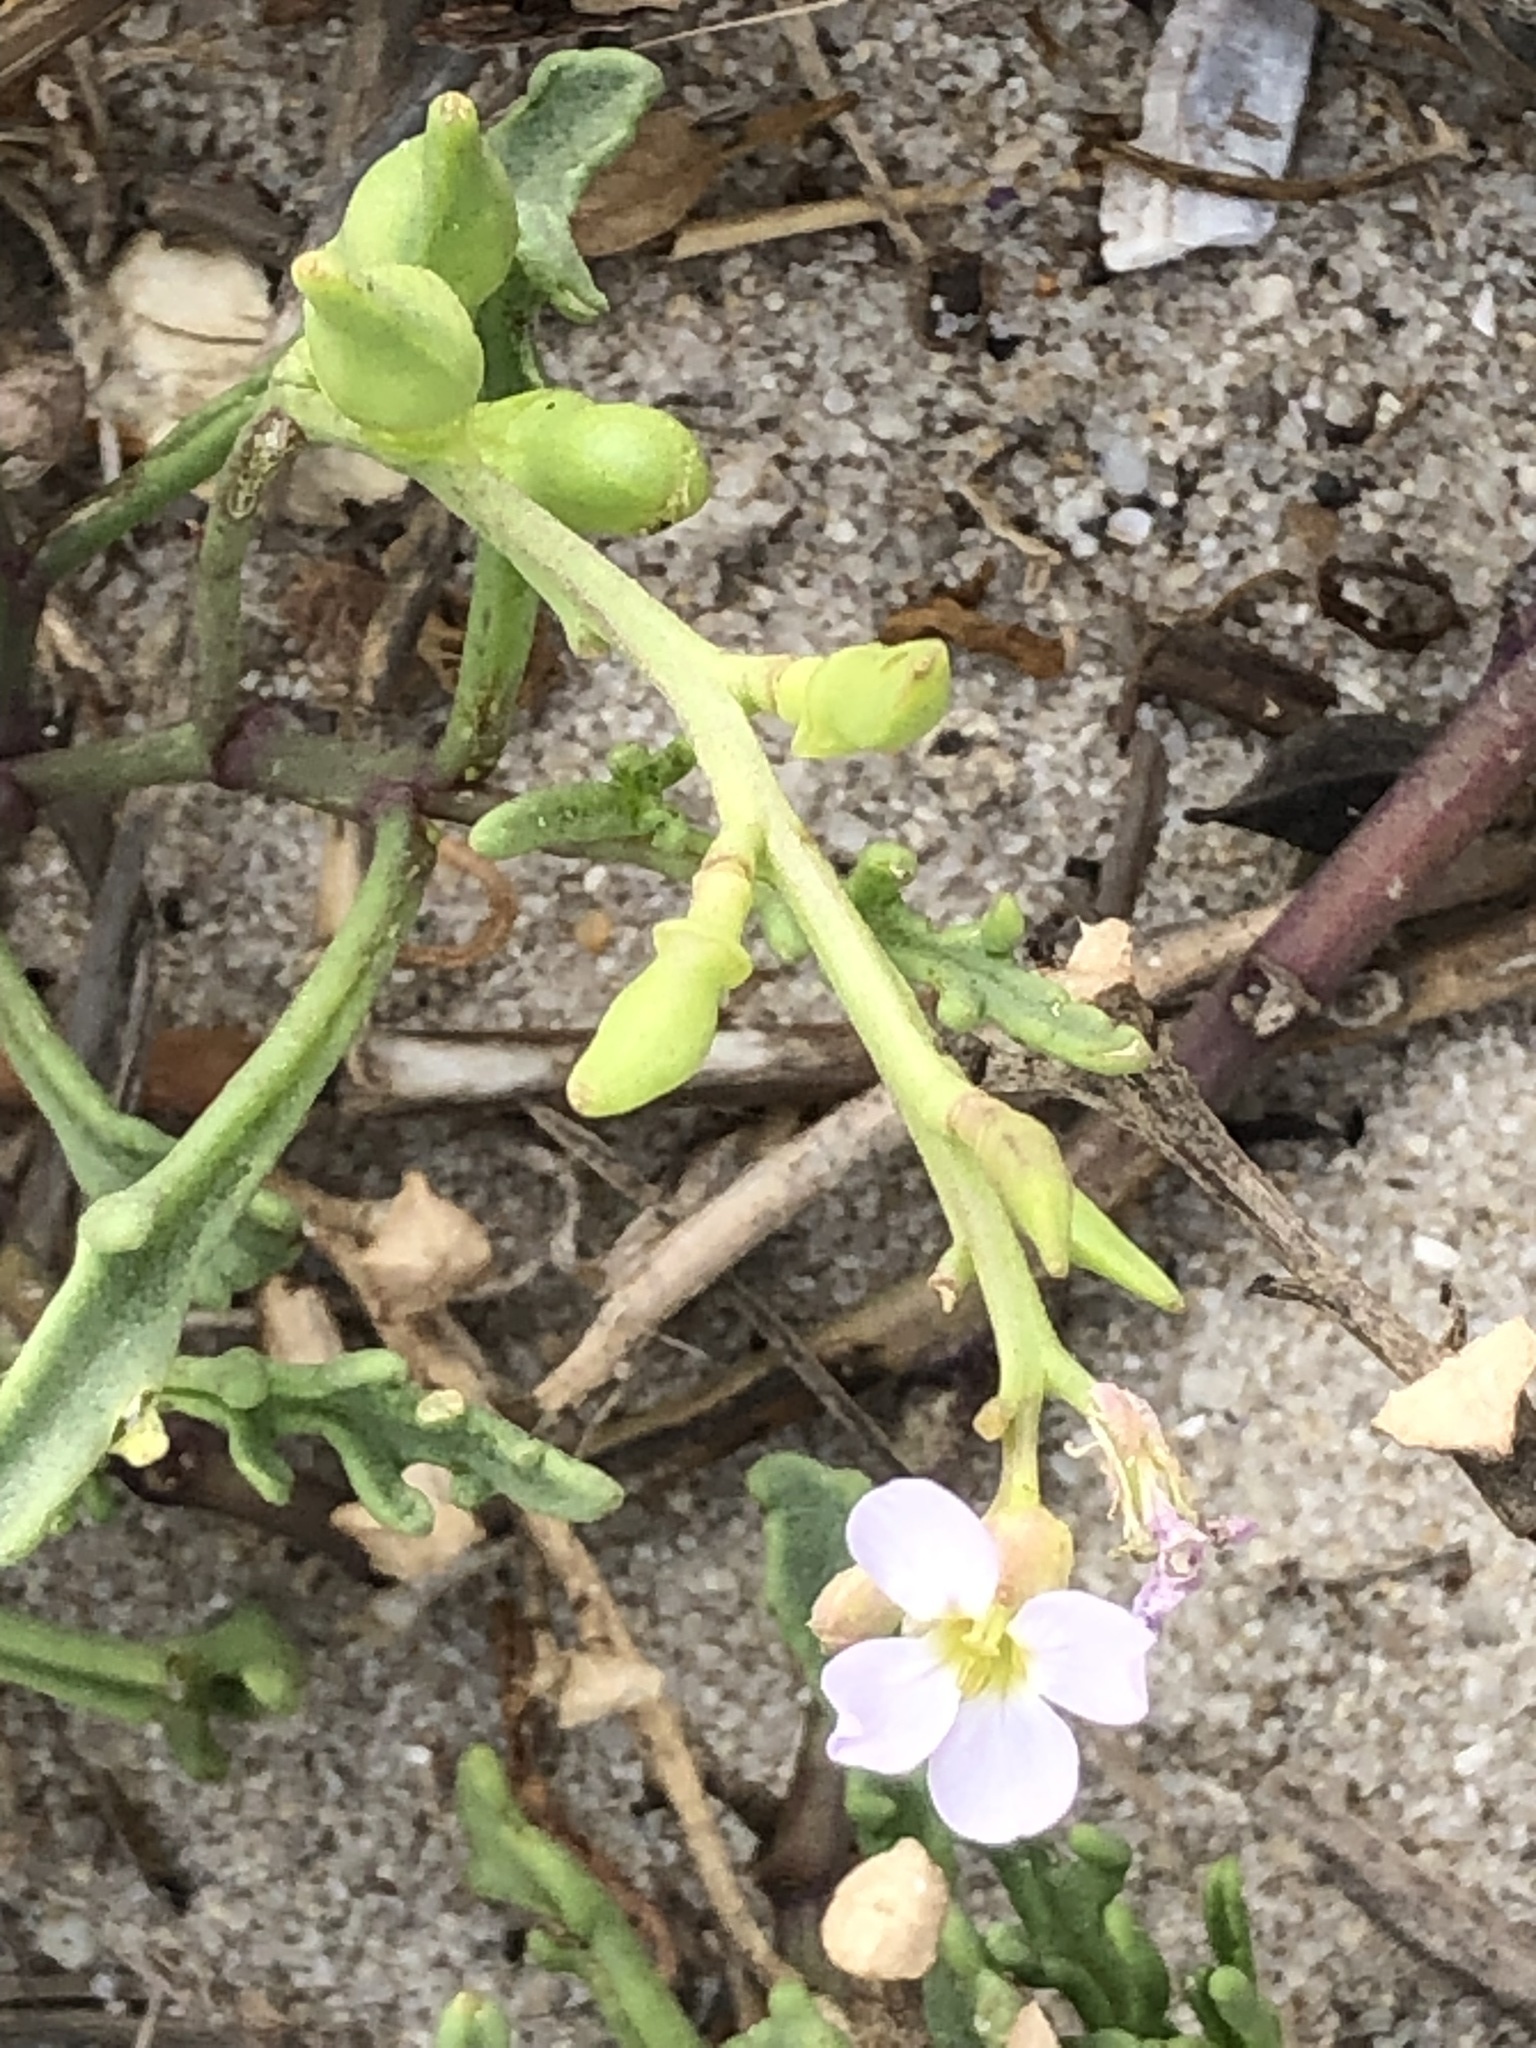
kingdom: Plantae
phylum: Tracheophyta
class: Magnoliopsida
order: Brassicales
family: Brassicaceae
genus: Cakile
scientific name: Cakile maritima
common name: Sea rocket
